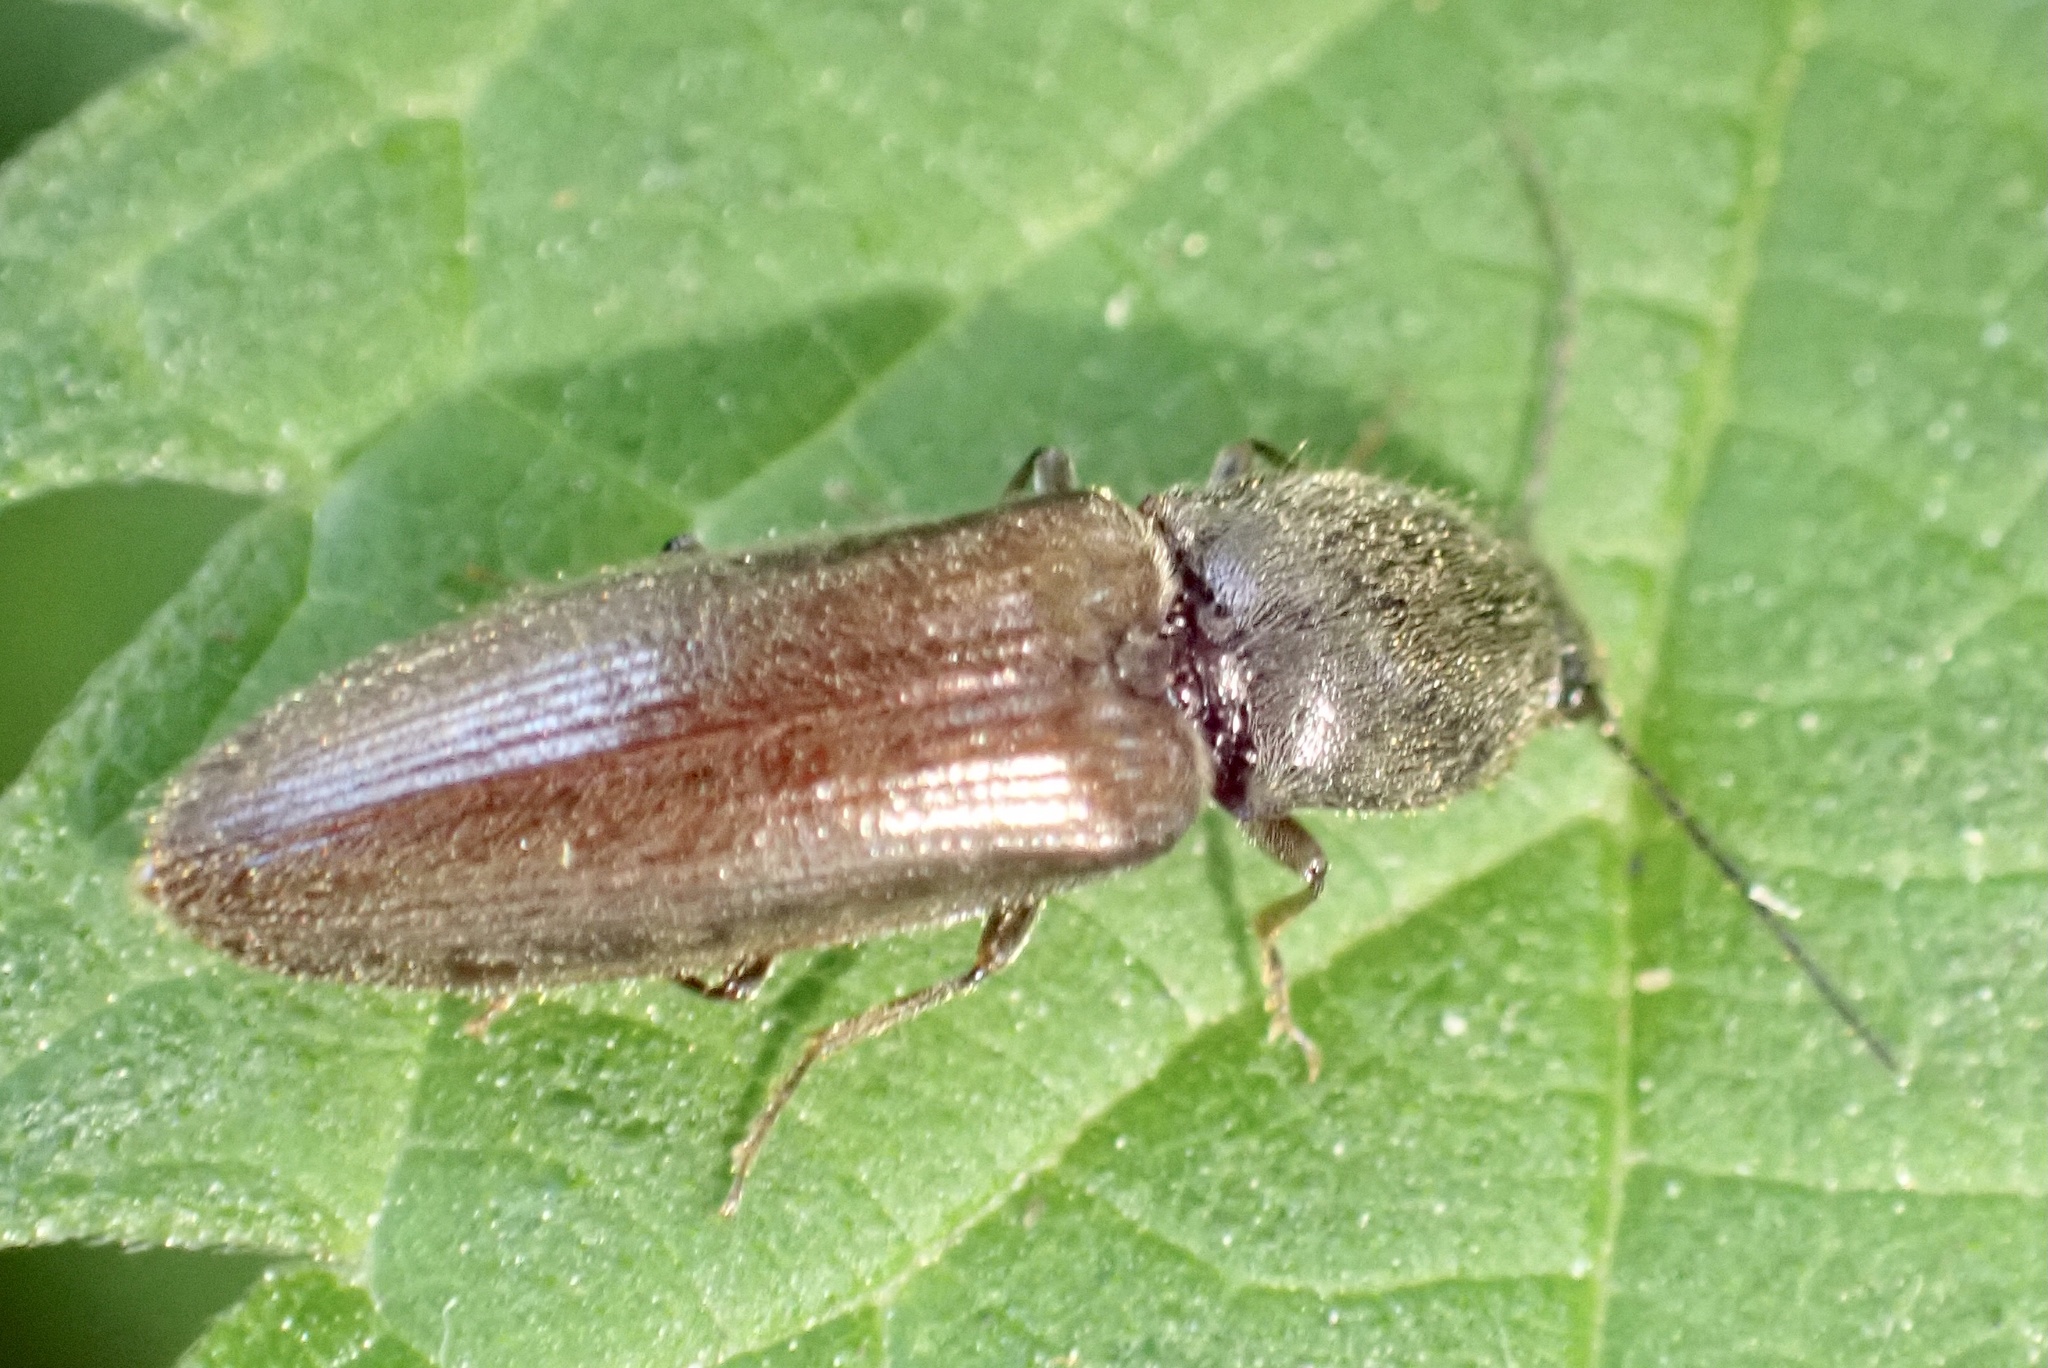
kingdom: Animalia
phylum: Arthropoda
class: Insecta
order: Coleoptera
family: Elateridae
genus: Athous
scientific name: Athous haemorrhoidalis
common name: Red-brown click beetle
